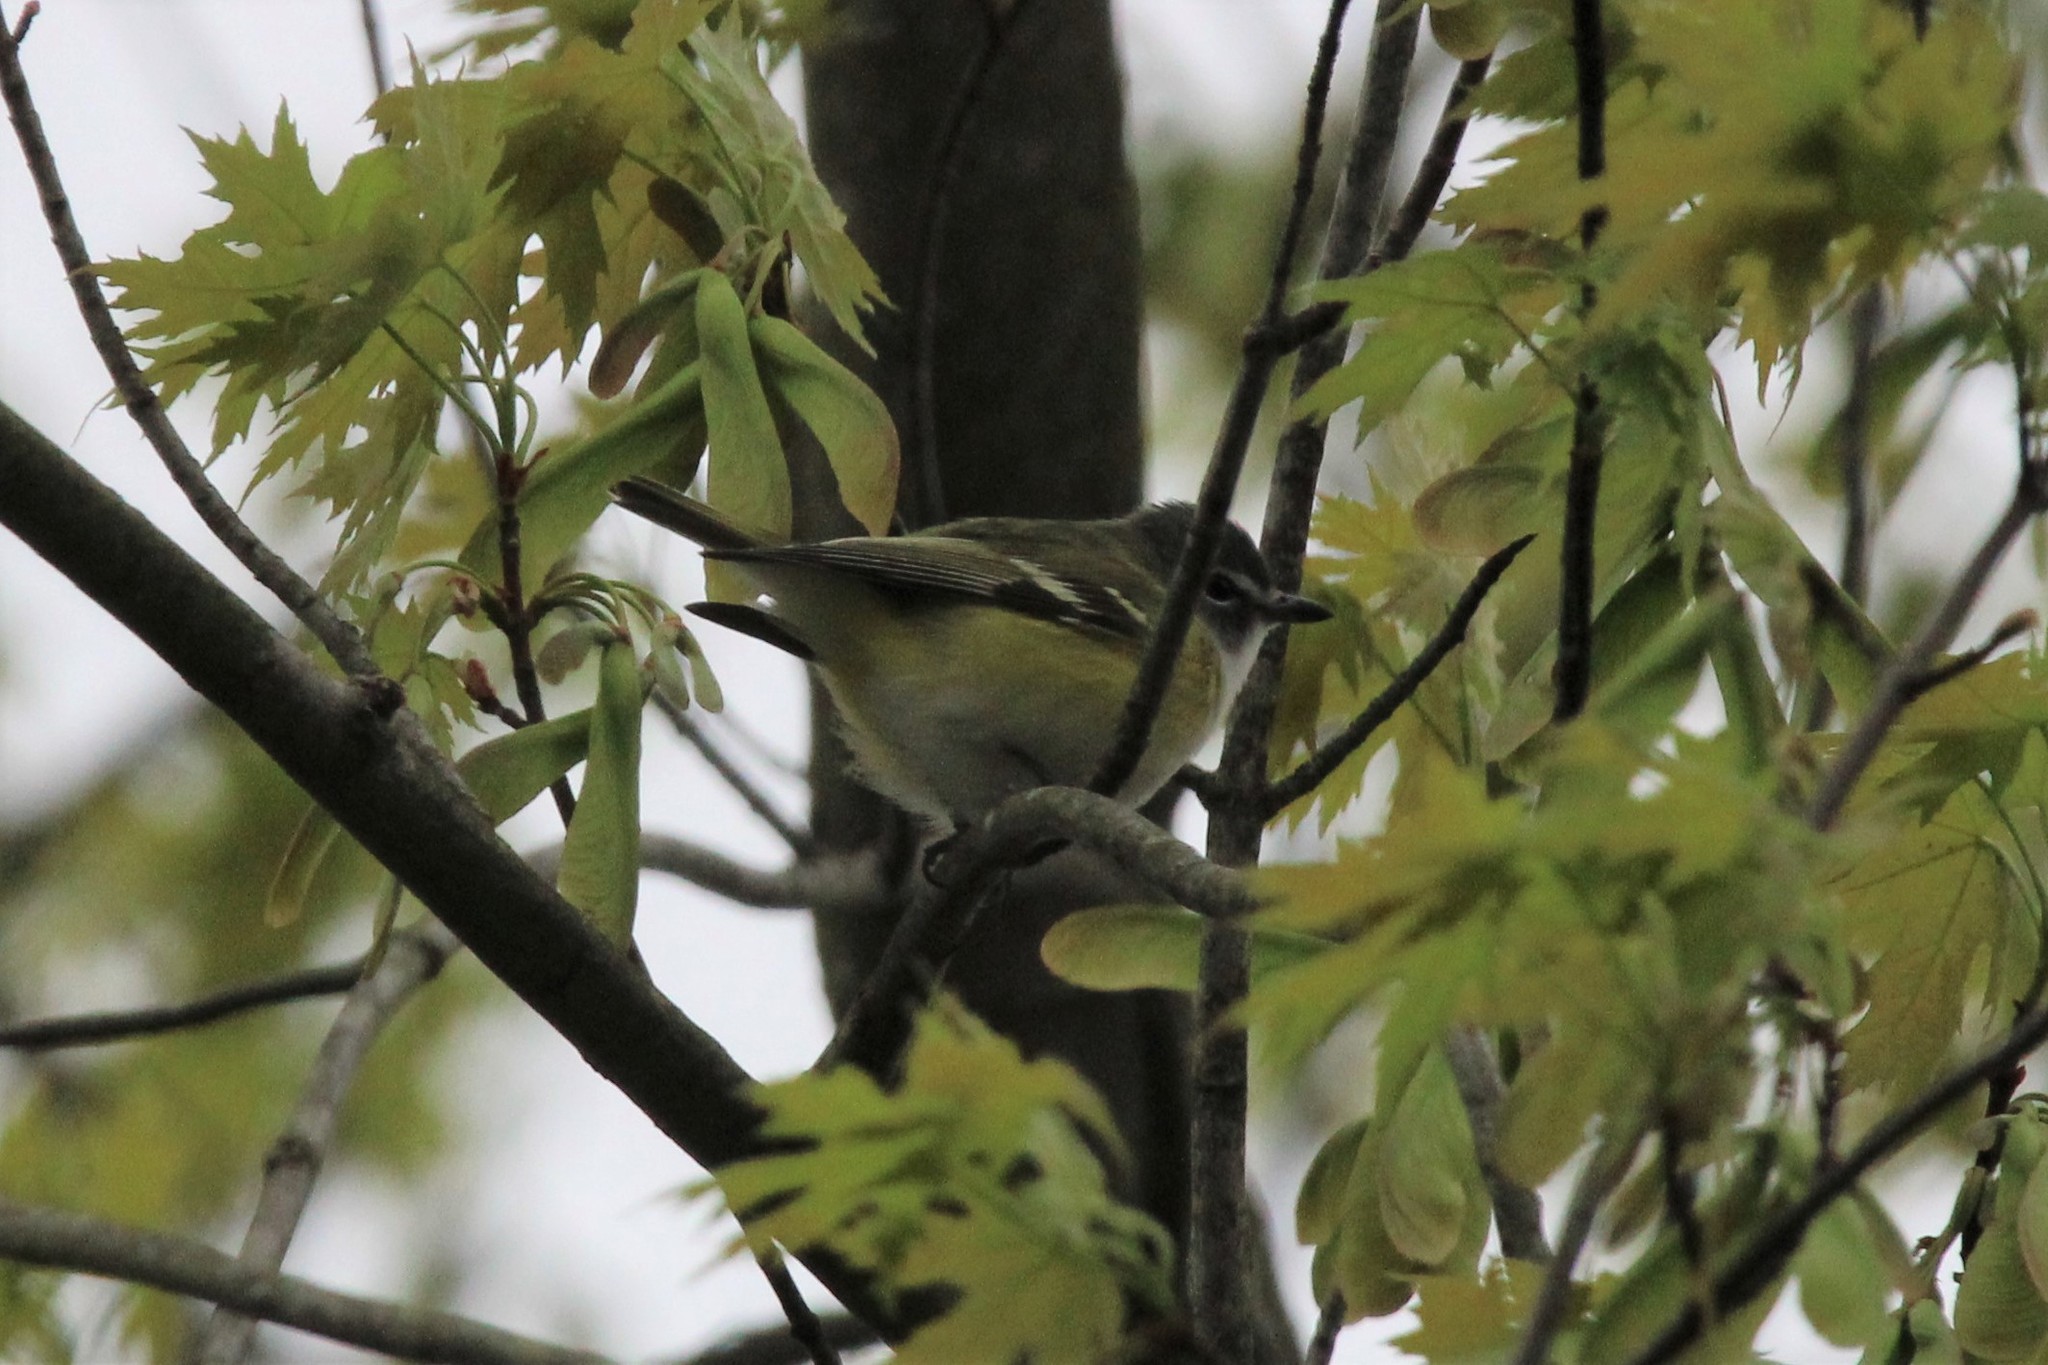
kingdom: Animalia
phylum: Chordata
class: Aves
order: Passeriformes
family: Vireonidae
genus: Vireo
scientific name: Vireo solitarius
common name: Blue-headed vireo
